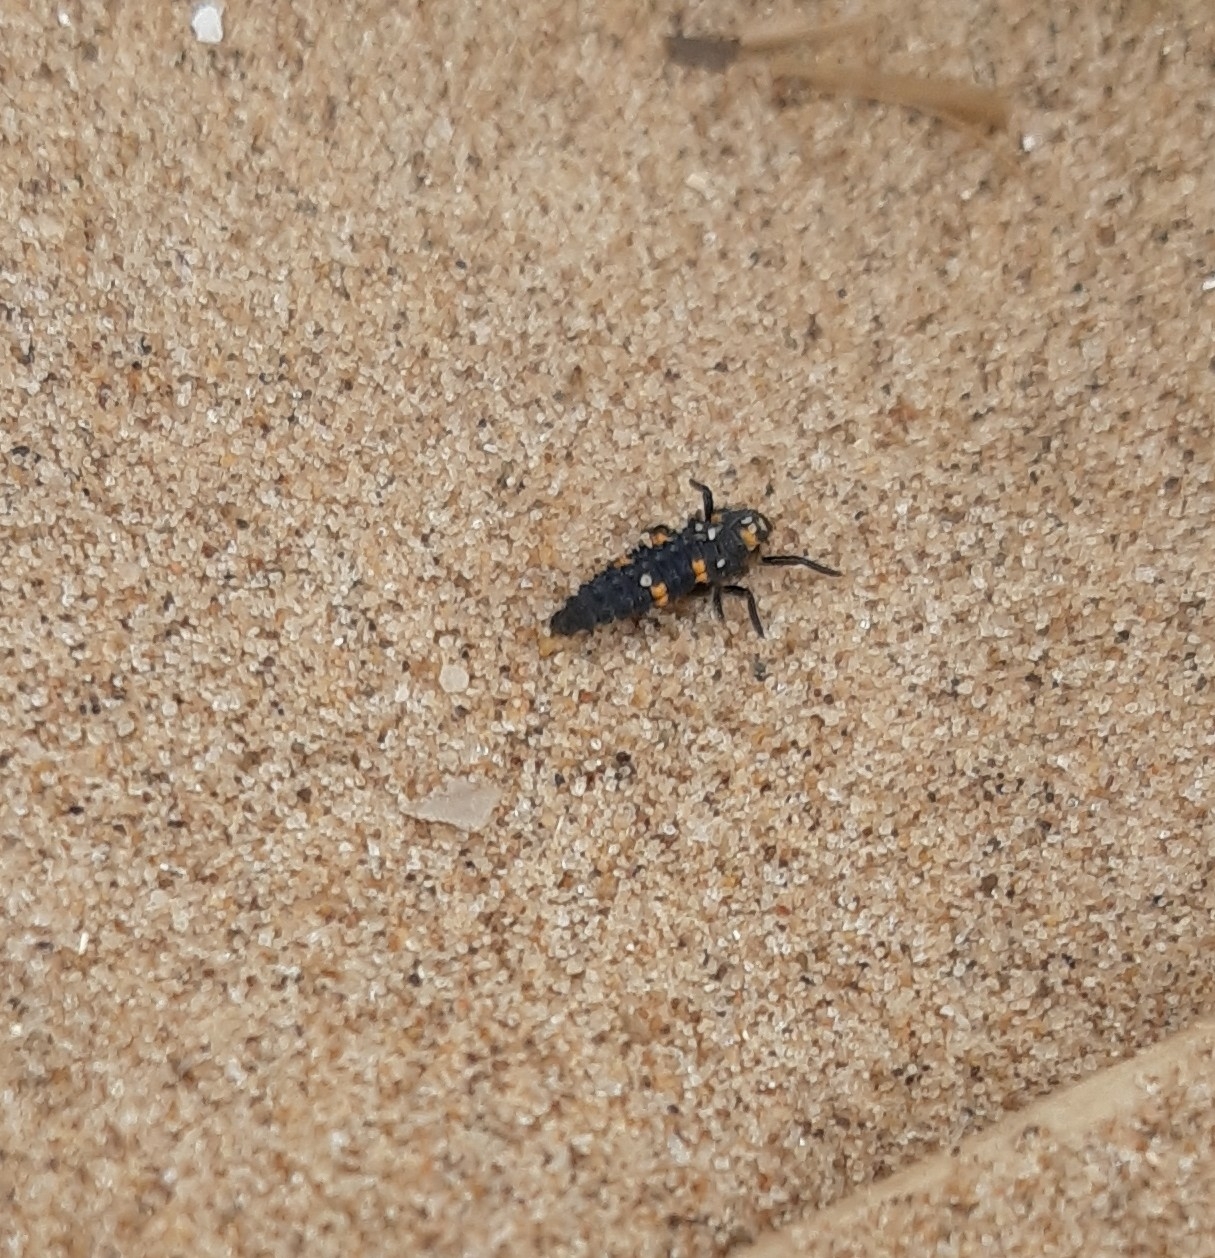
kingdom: Animalia
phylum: Arthropoda
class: Insecta
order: Coleoptera
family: Coccinellidae
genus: Coccinella
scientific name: Coccinella septempunctata
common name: Sevenspotted lady beetle
